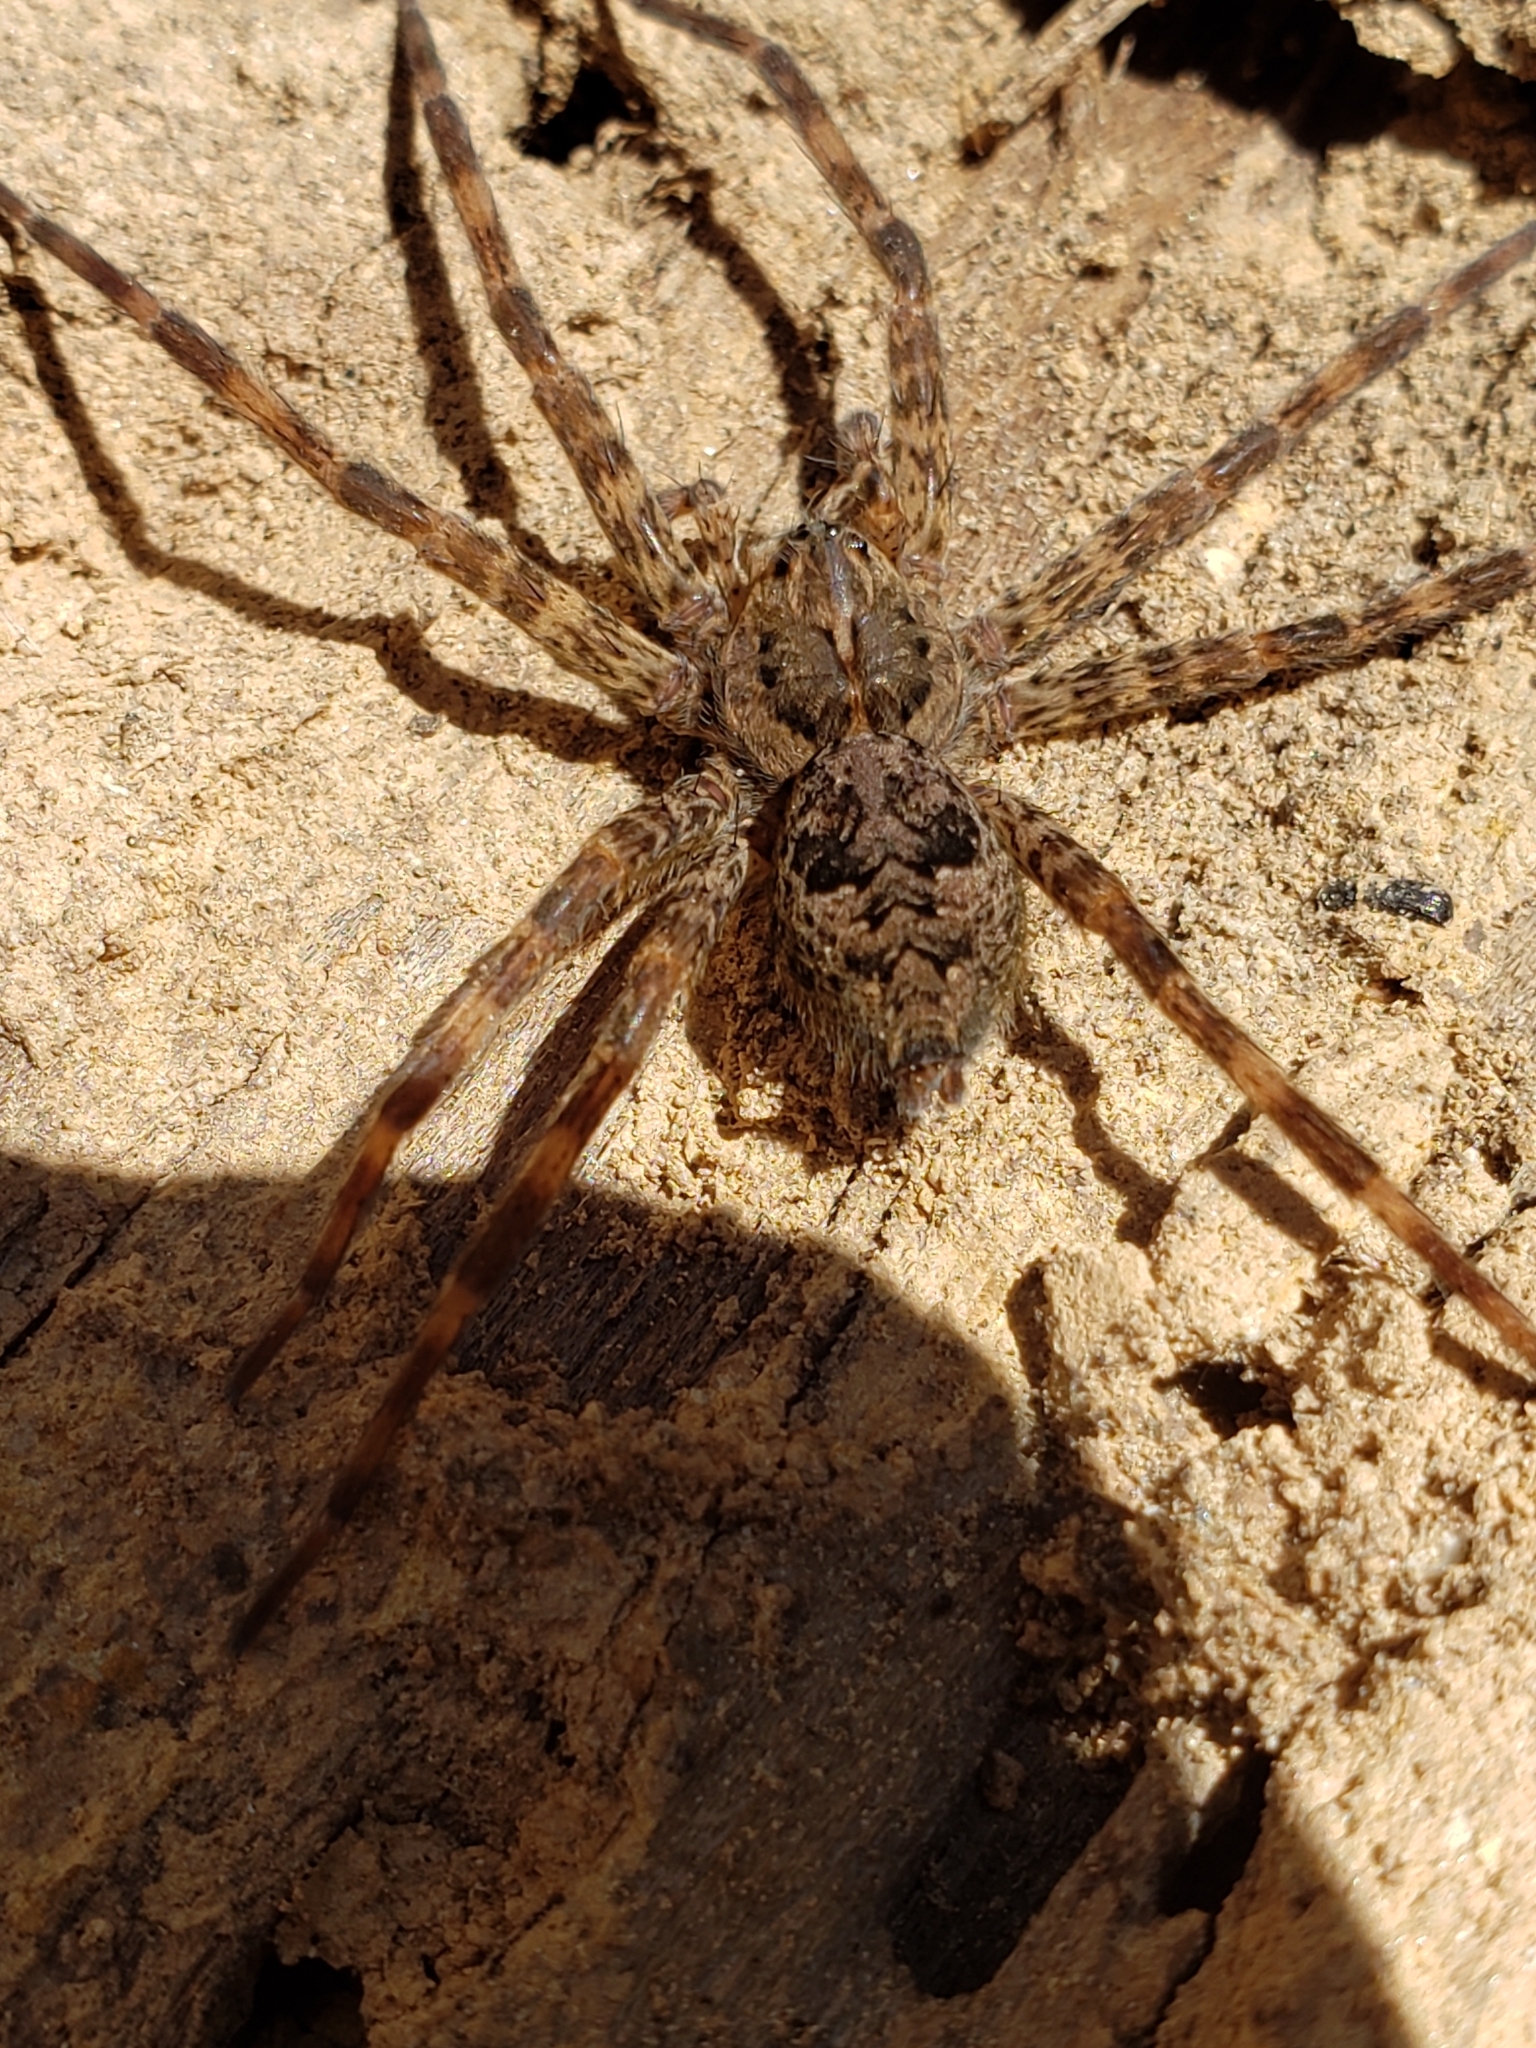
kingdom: Animalia
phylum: Arthropoda
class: Arachnida
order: Araneae
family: Pisauridae
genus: Dolomedes
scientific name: Dolomedes tenebrosus
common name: Dark fishing spider
